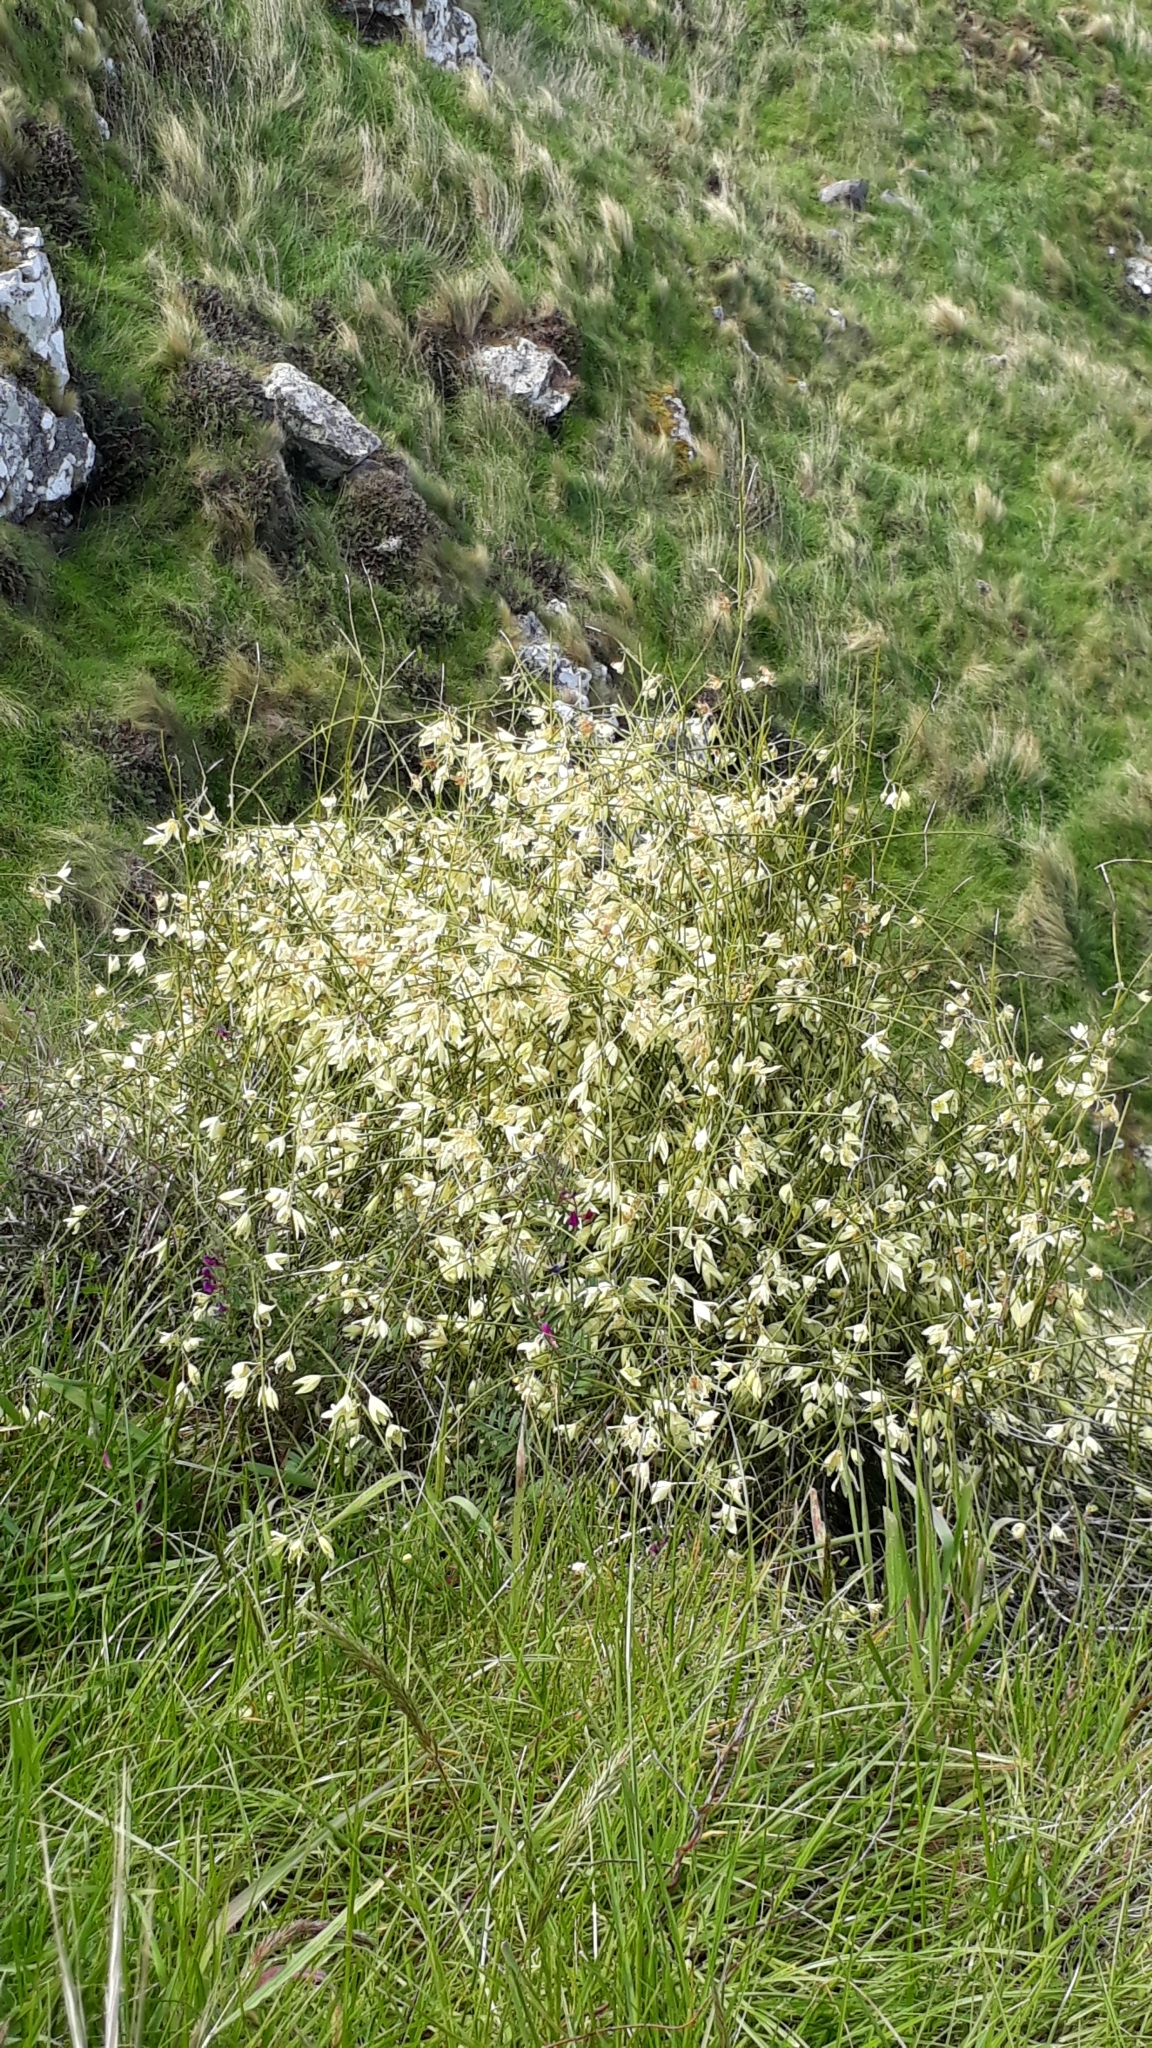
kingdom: Plantae
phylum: Tracheophyta
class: Magnoliopsida
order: Ranunculales
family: Ranunculaceae
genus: Clematis
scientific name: Clematis afoliata
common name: Rush-stem clematis
